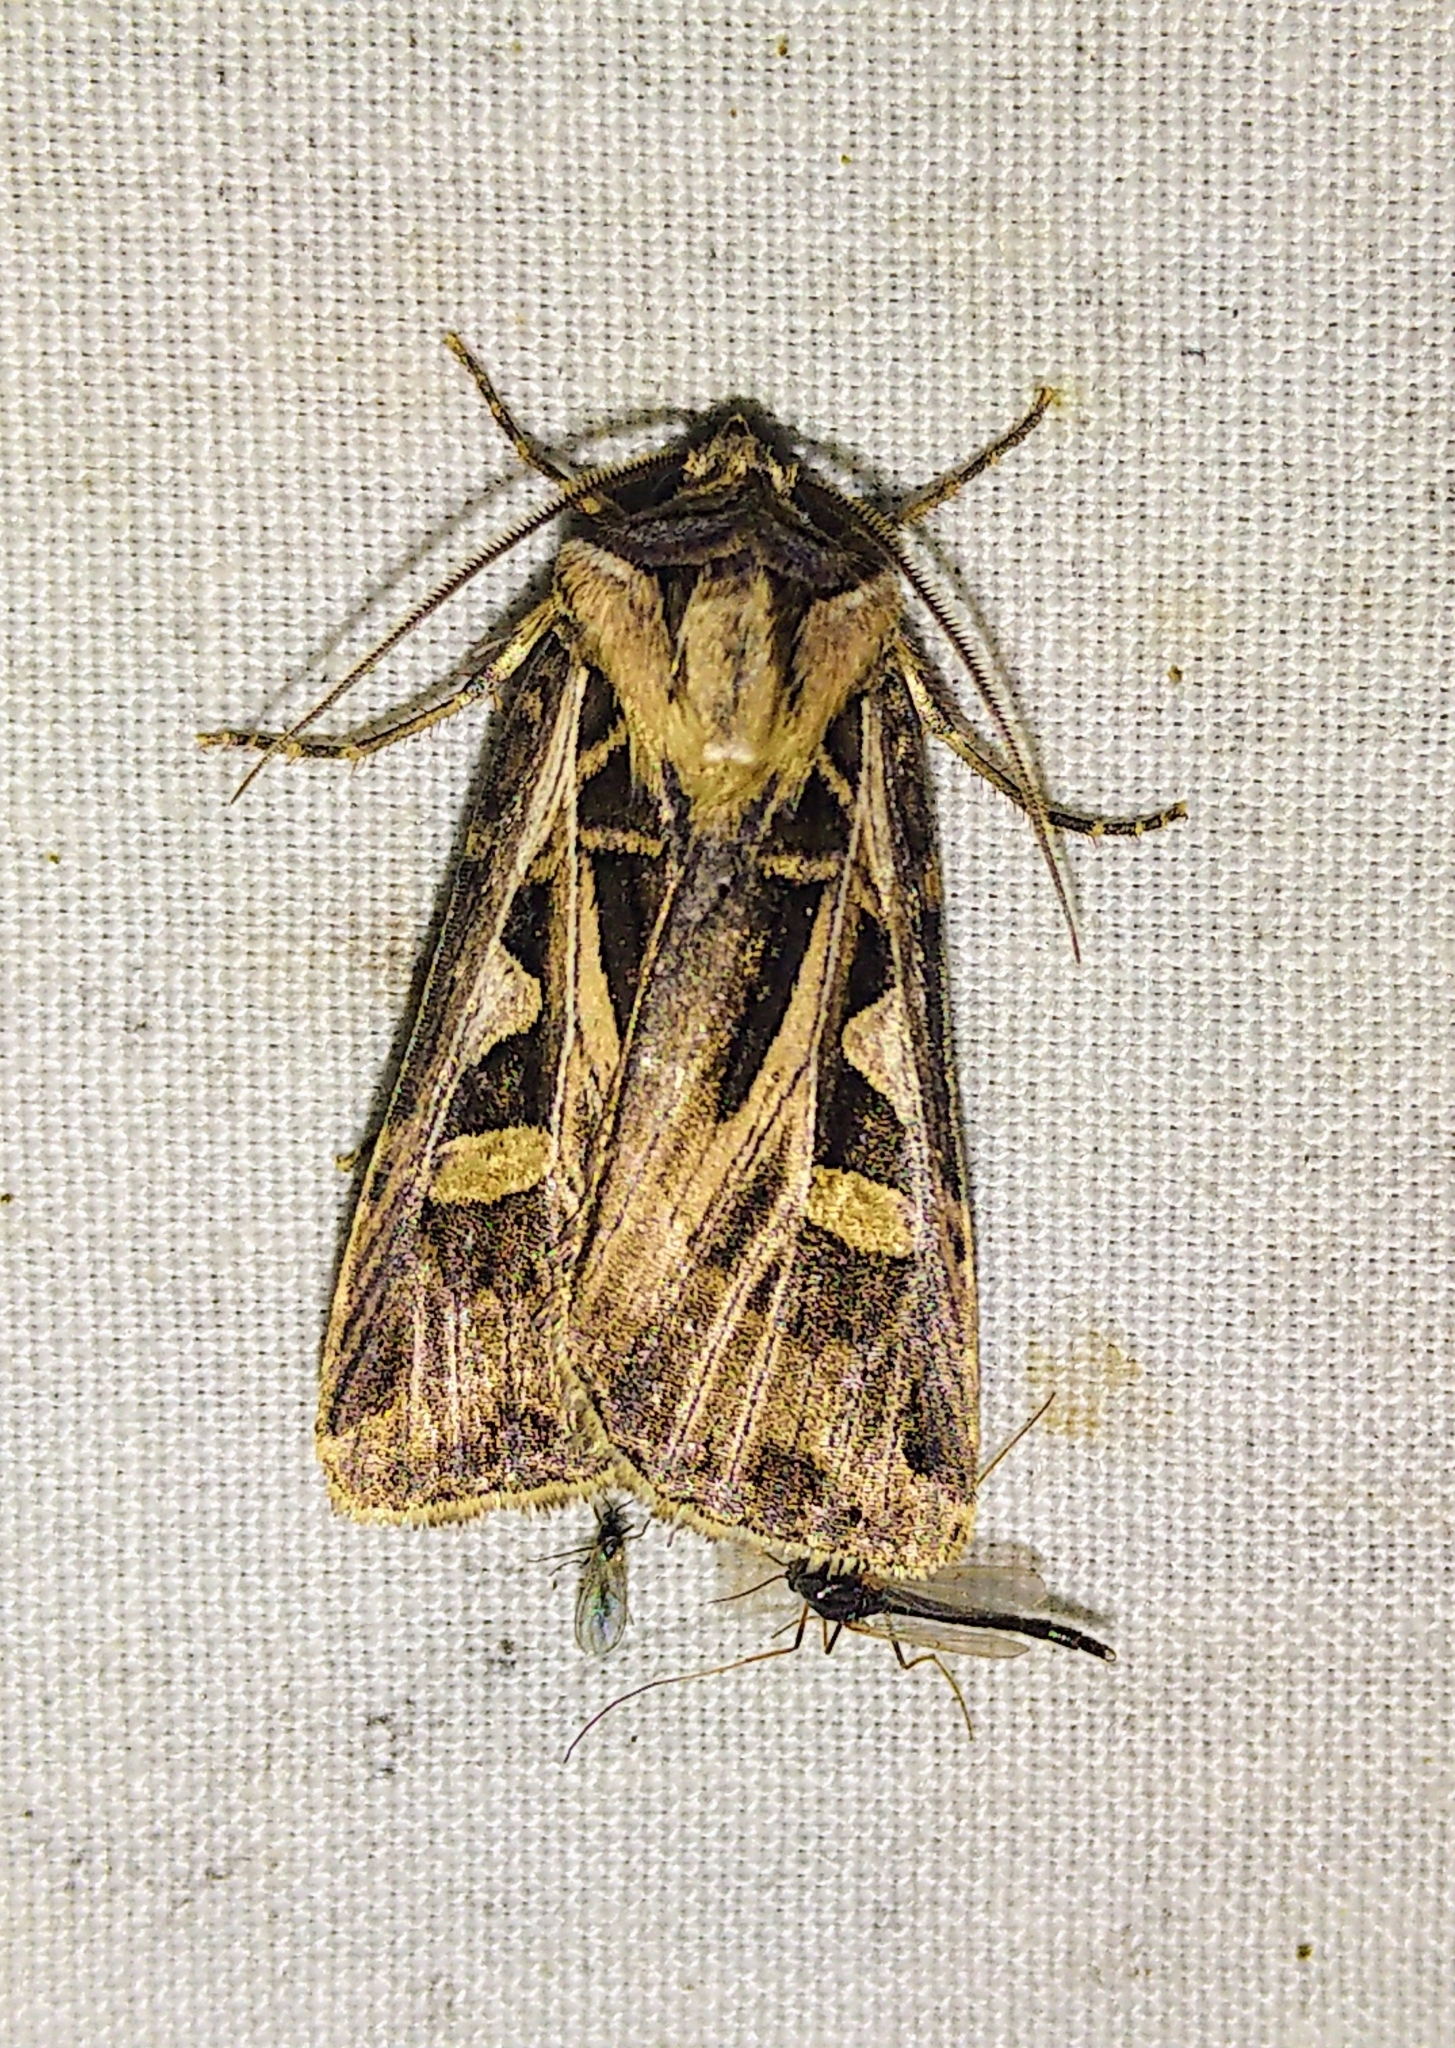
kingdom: Animalia
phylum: Arthropoda
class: Insecta
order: Lepidoptera
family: Noctuidae
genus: Feltia
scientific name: Feltia jaculifera
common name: Dingy cutworm moth
